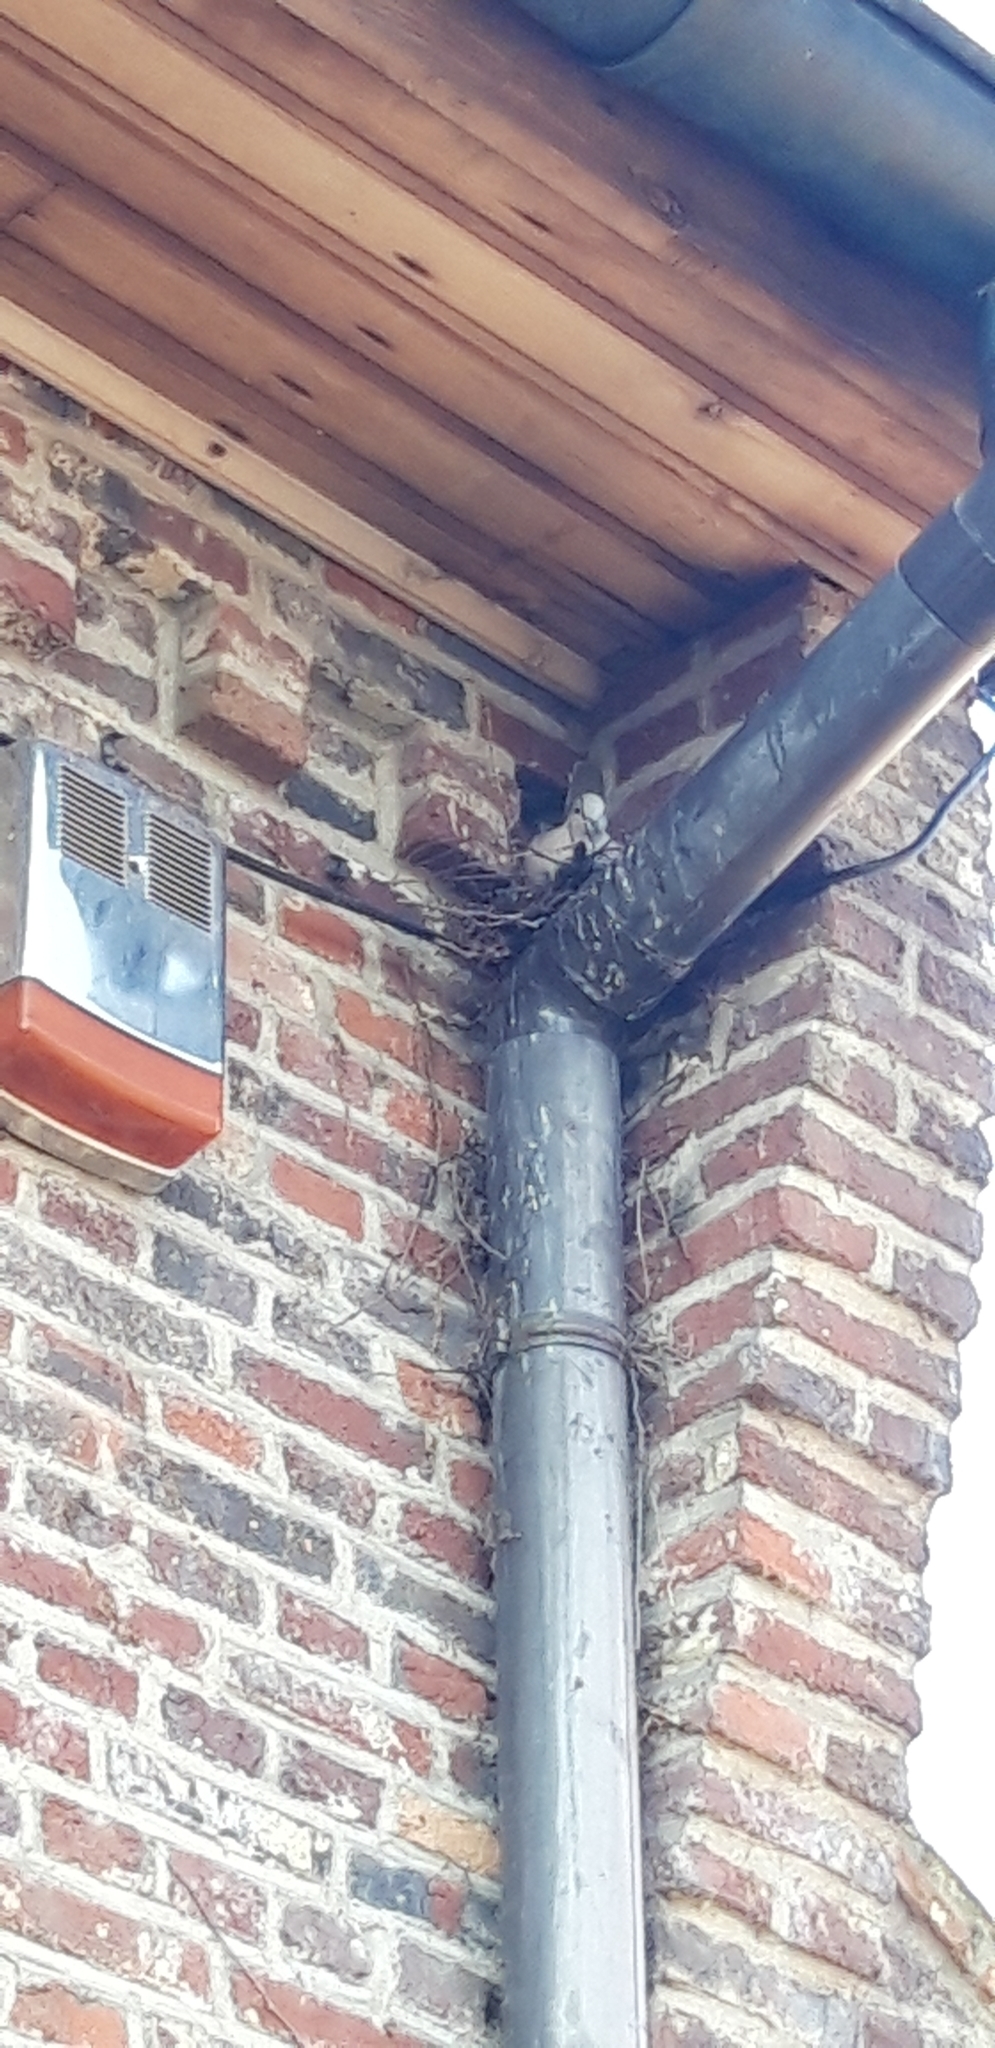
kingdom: Animalia
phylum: Chordata
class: Aves
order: Columbiformes
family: Columbidae
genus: Streptopelia
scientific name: Streptopelia decaocto
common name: Eurasian collared dove
